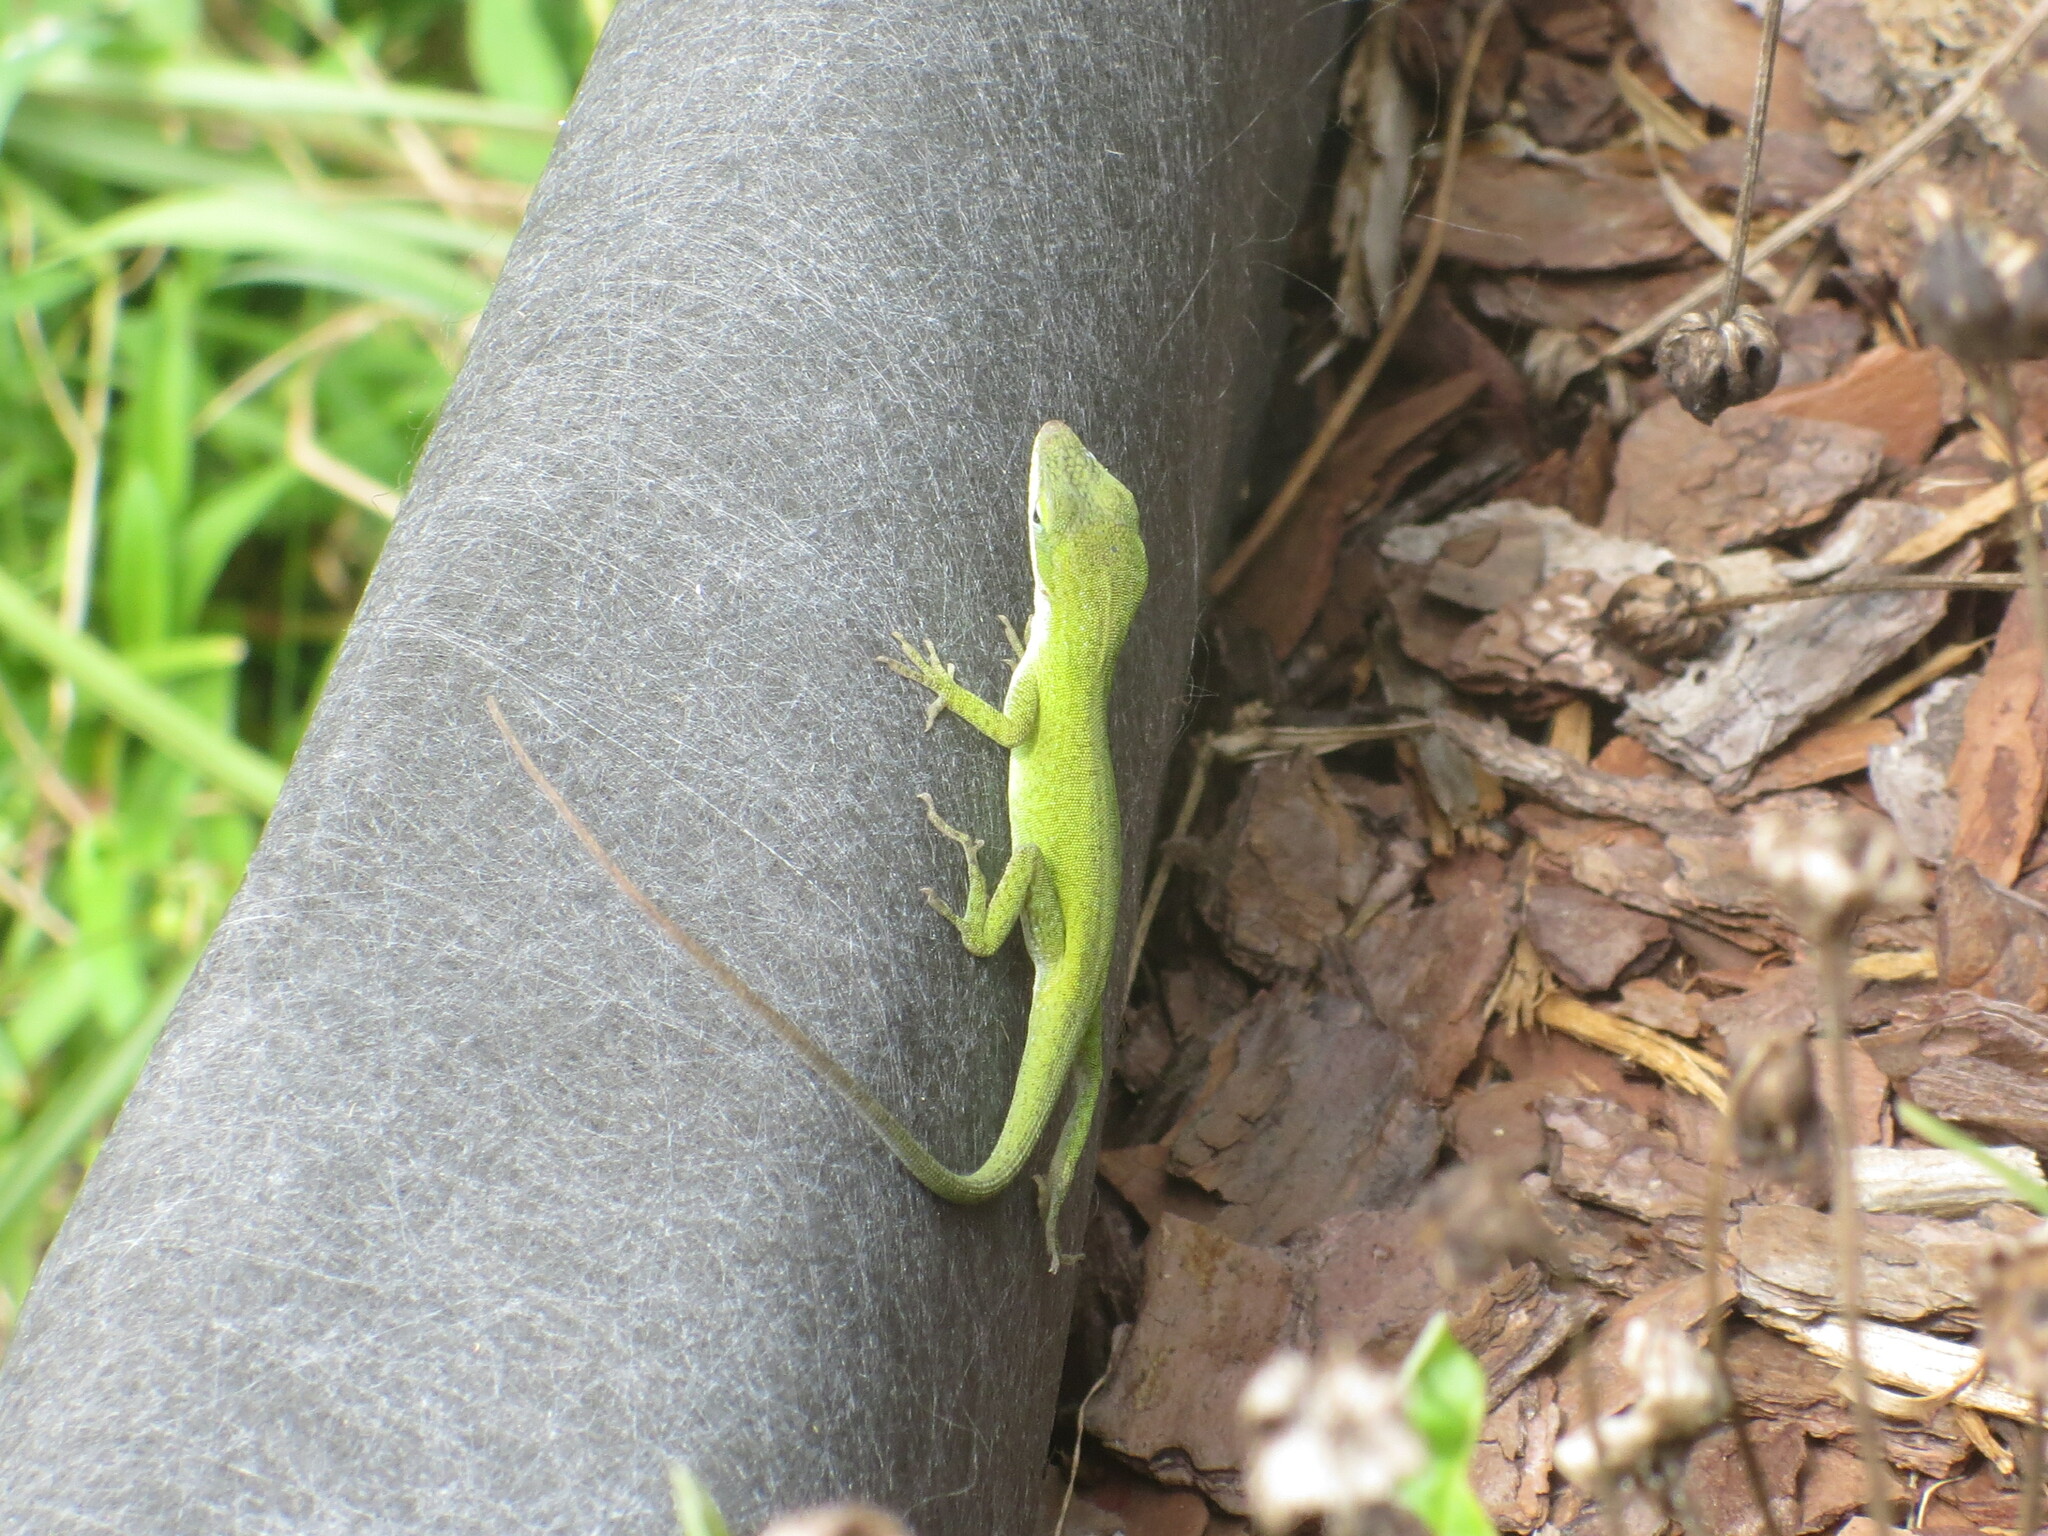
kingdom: Animalia
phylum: Chordata
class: Squamata
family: Dactyloidae
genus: Anolis
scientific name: Anolis carolinensis
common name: Green anole
